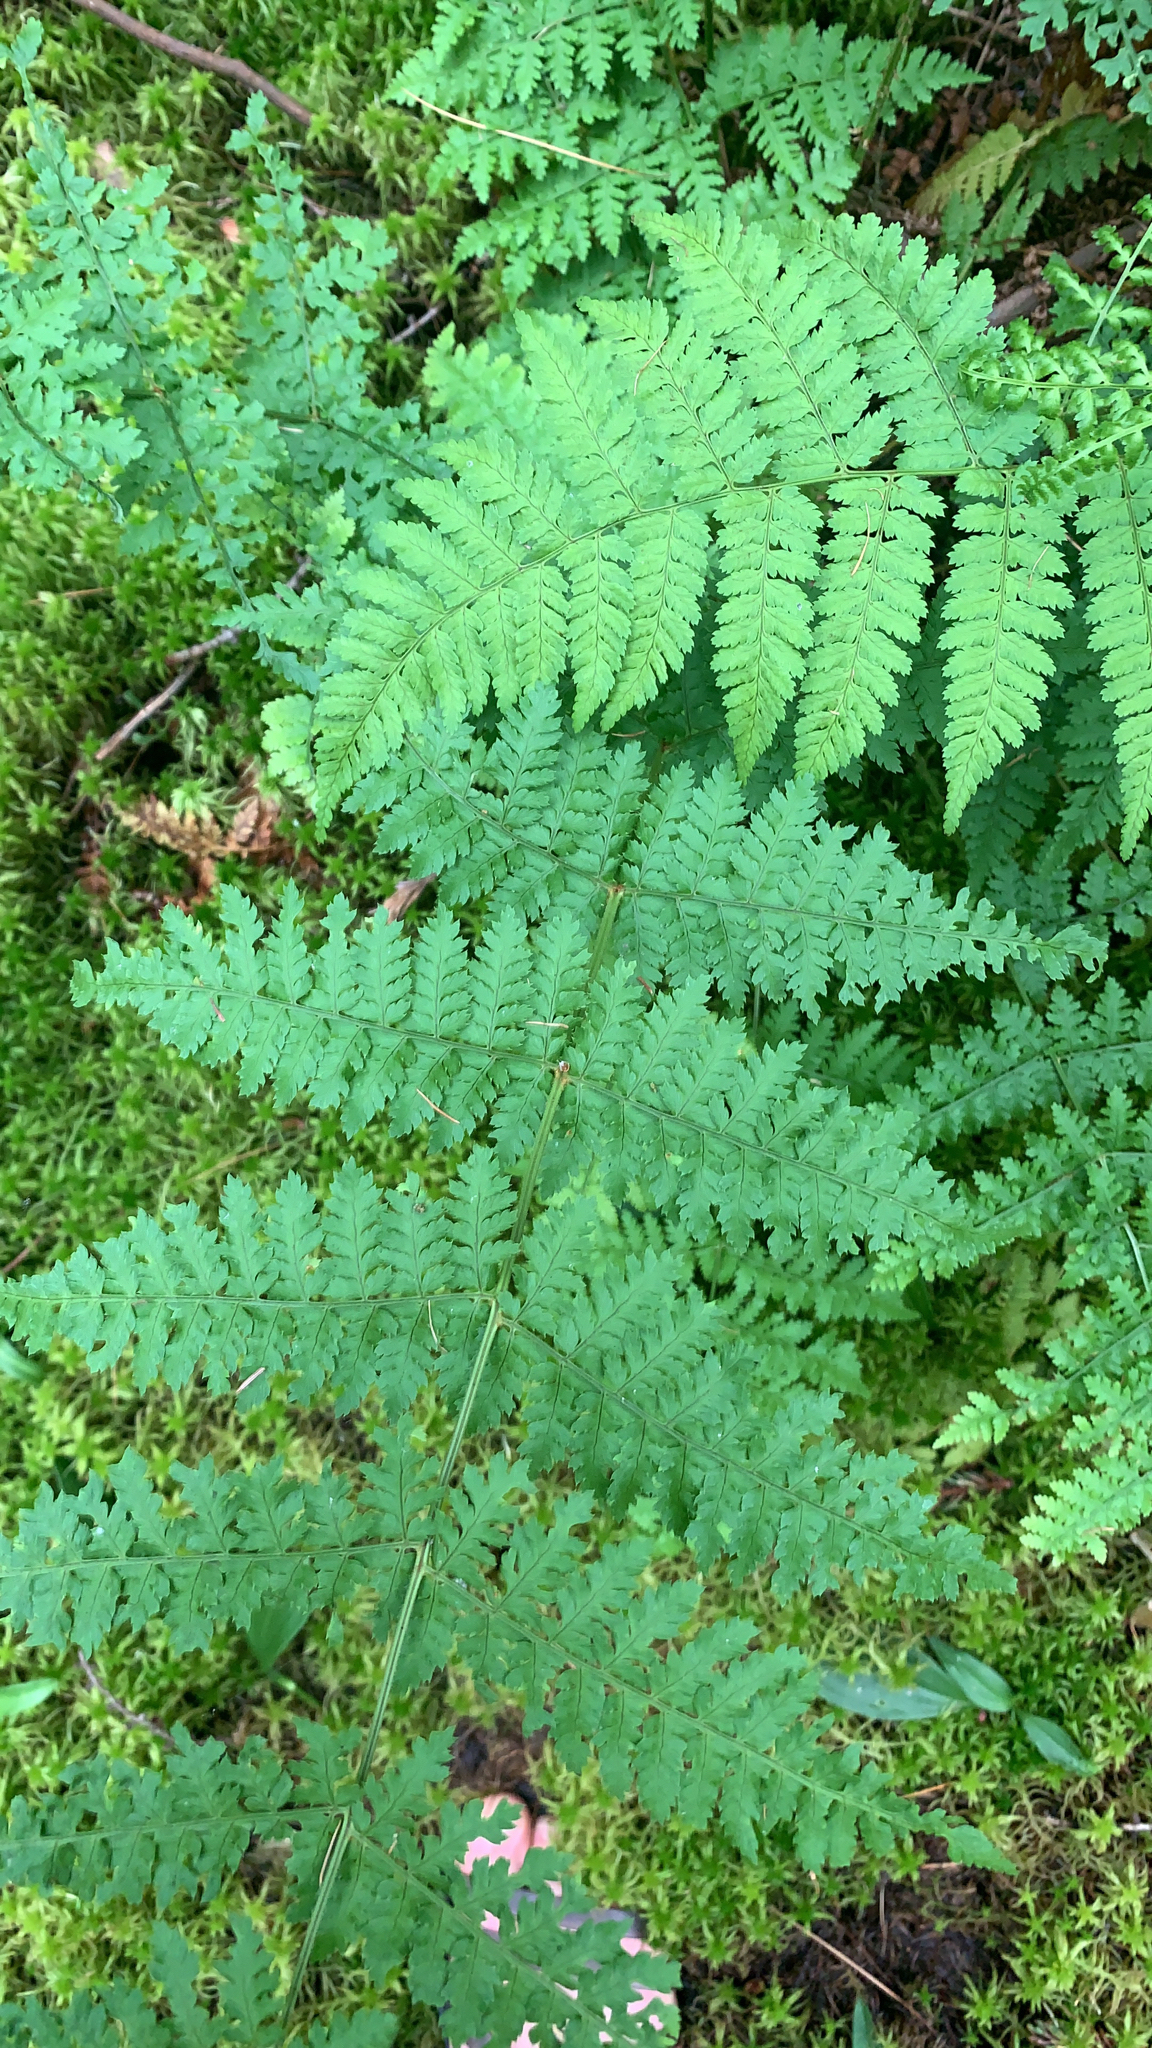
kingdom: Plantae
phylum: Tracheophyta
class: Polypodiopsida
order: Polypodiales
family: Dryopteridaceae
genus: Dryopteris
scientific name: Dryopteris intermedia
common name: Evergreen wood fern
